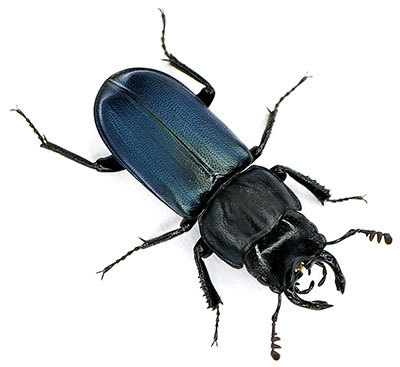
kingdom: Animalia
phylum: Arthropoda
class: Insecta
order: Coleoptera
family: Lucanidae
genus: Platycerus
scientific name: Platycerus oregonensis
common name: Oregon stag beetle
